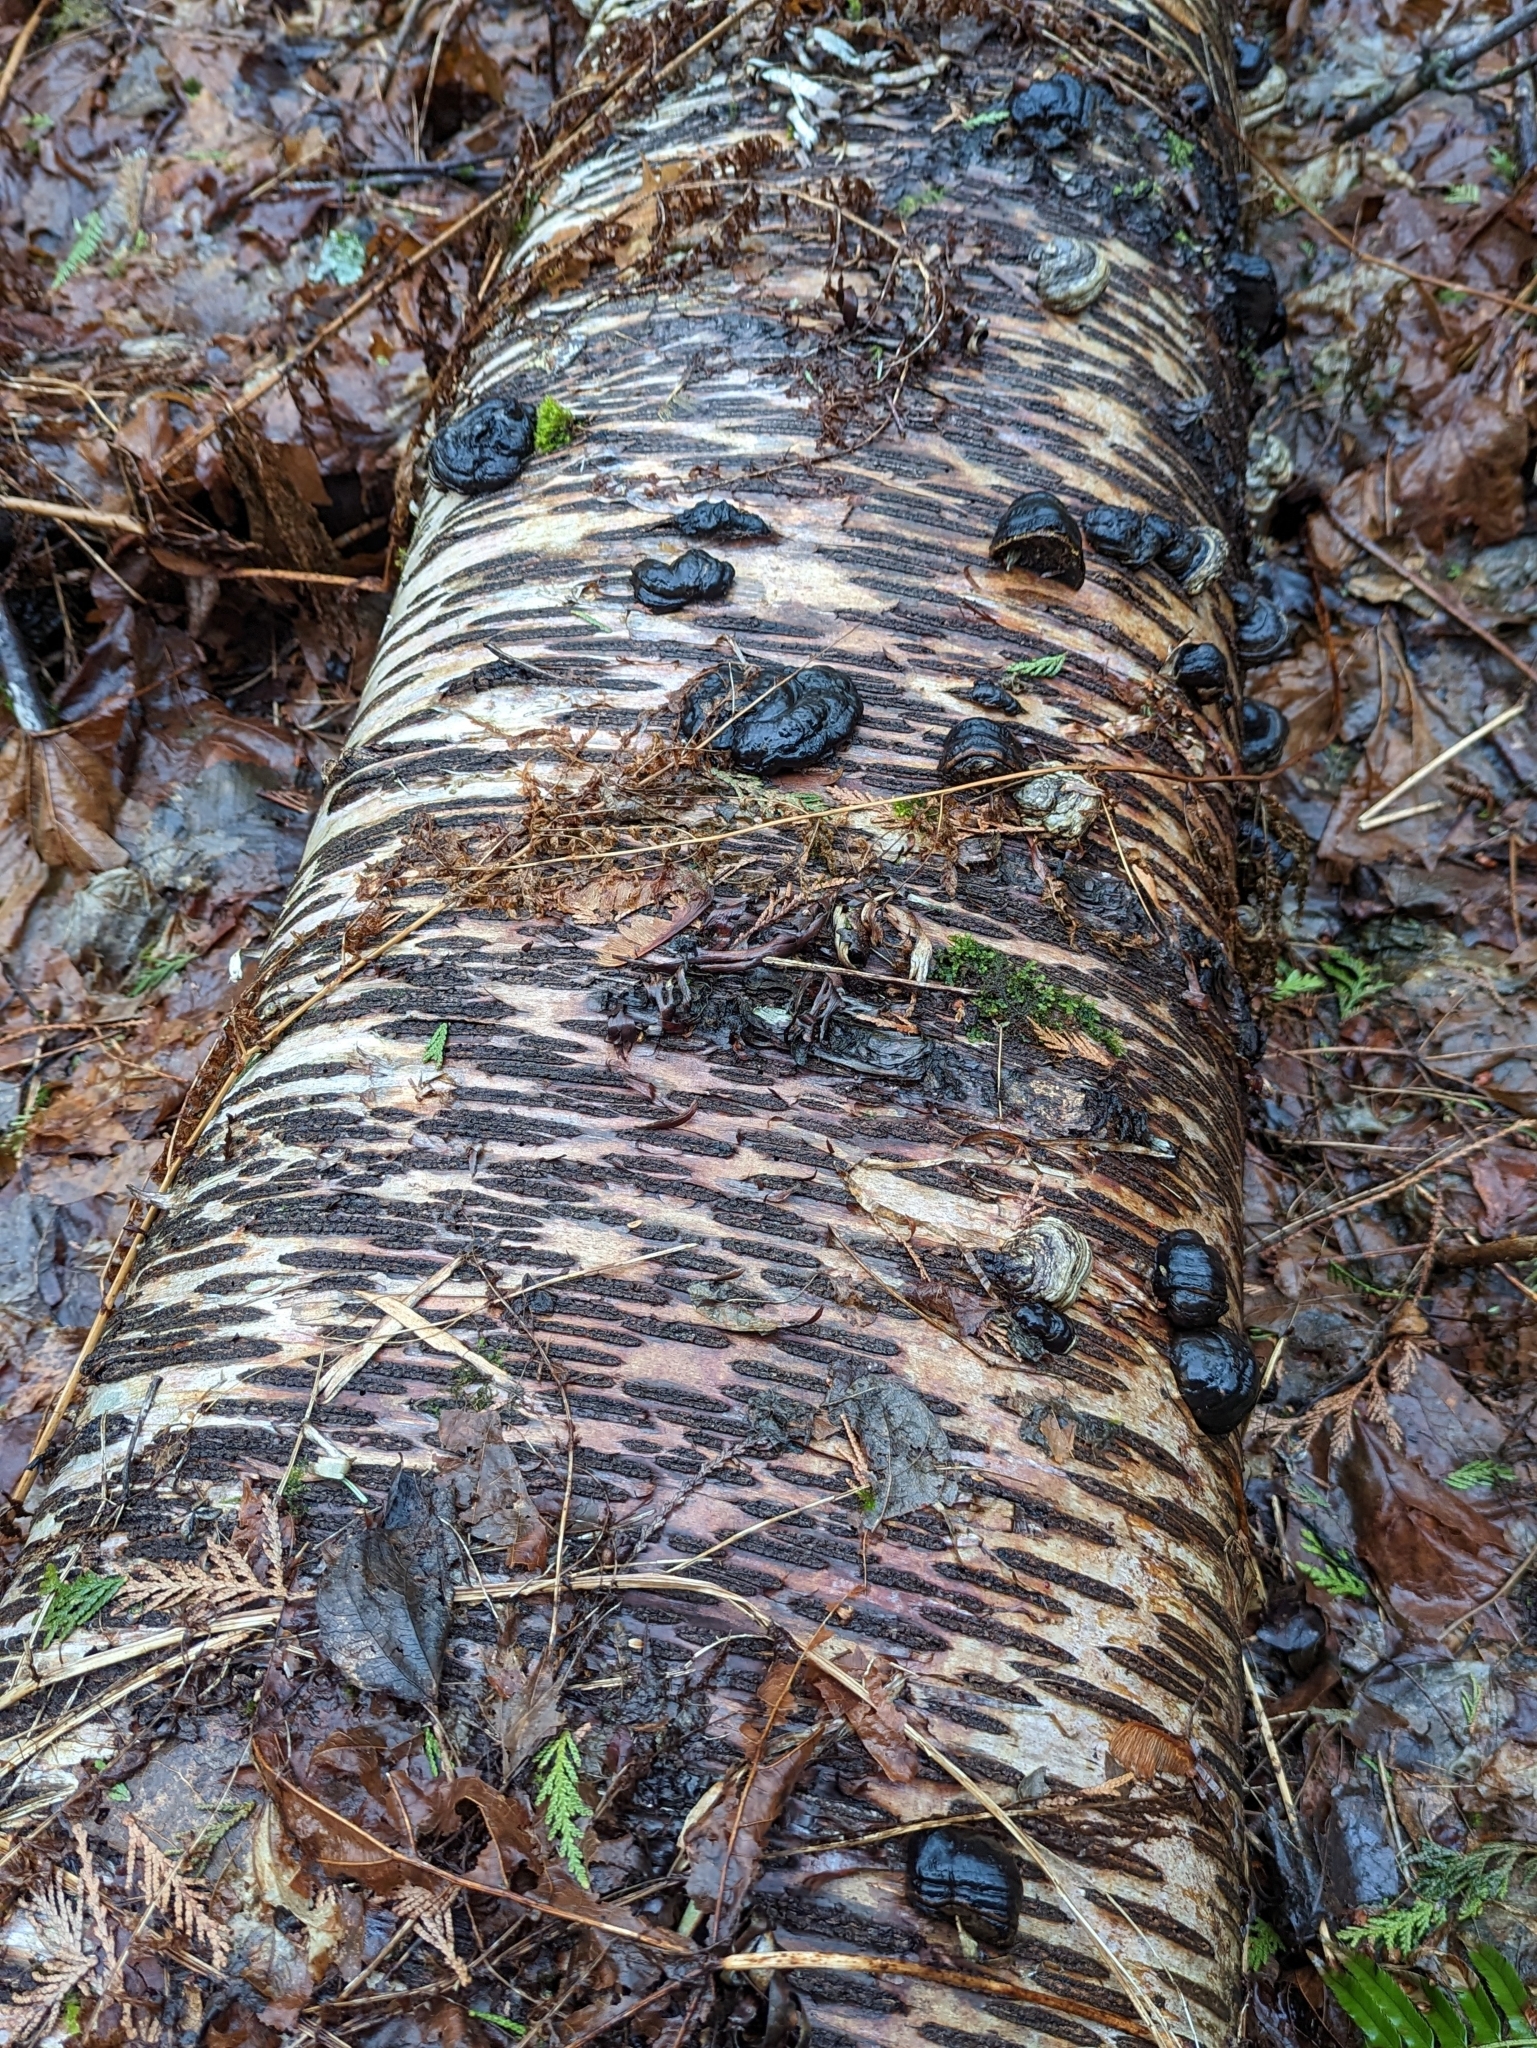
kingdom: Fungi
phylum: Basidiomycota
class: Agaricomycetes
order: Polyporales
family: Polyporaceae
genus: Fomes
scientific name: Fomes fomentarius
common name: Hoof fungus
